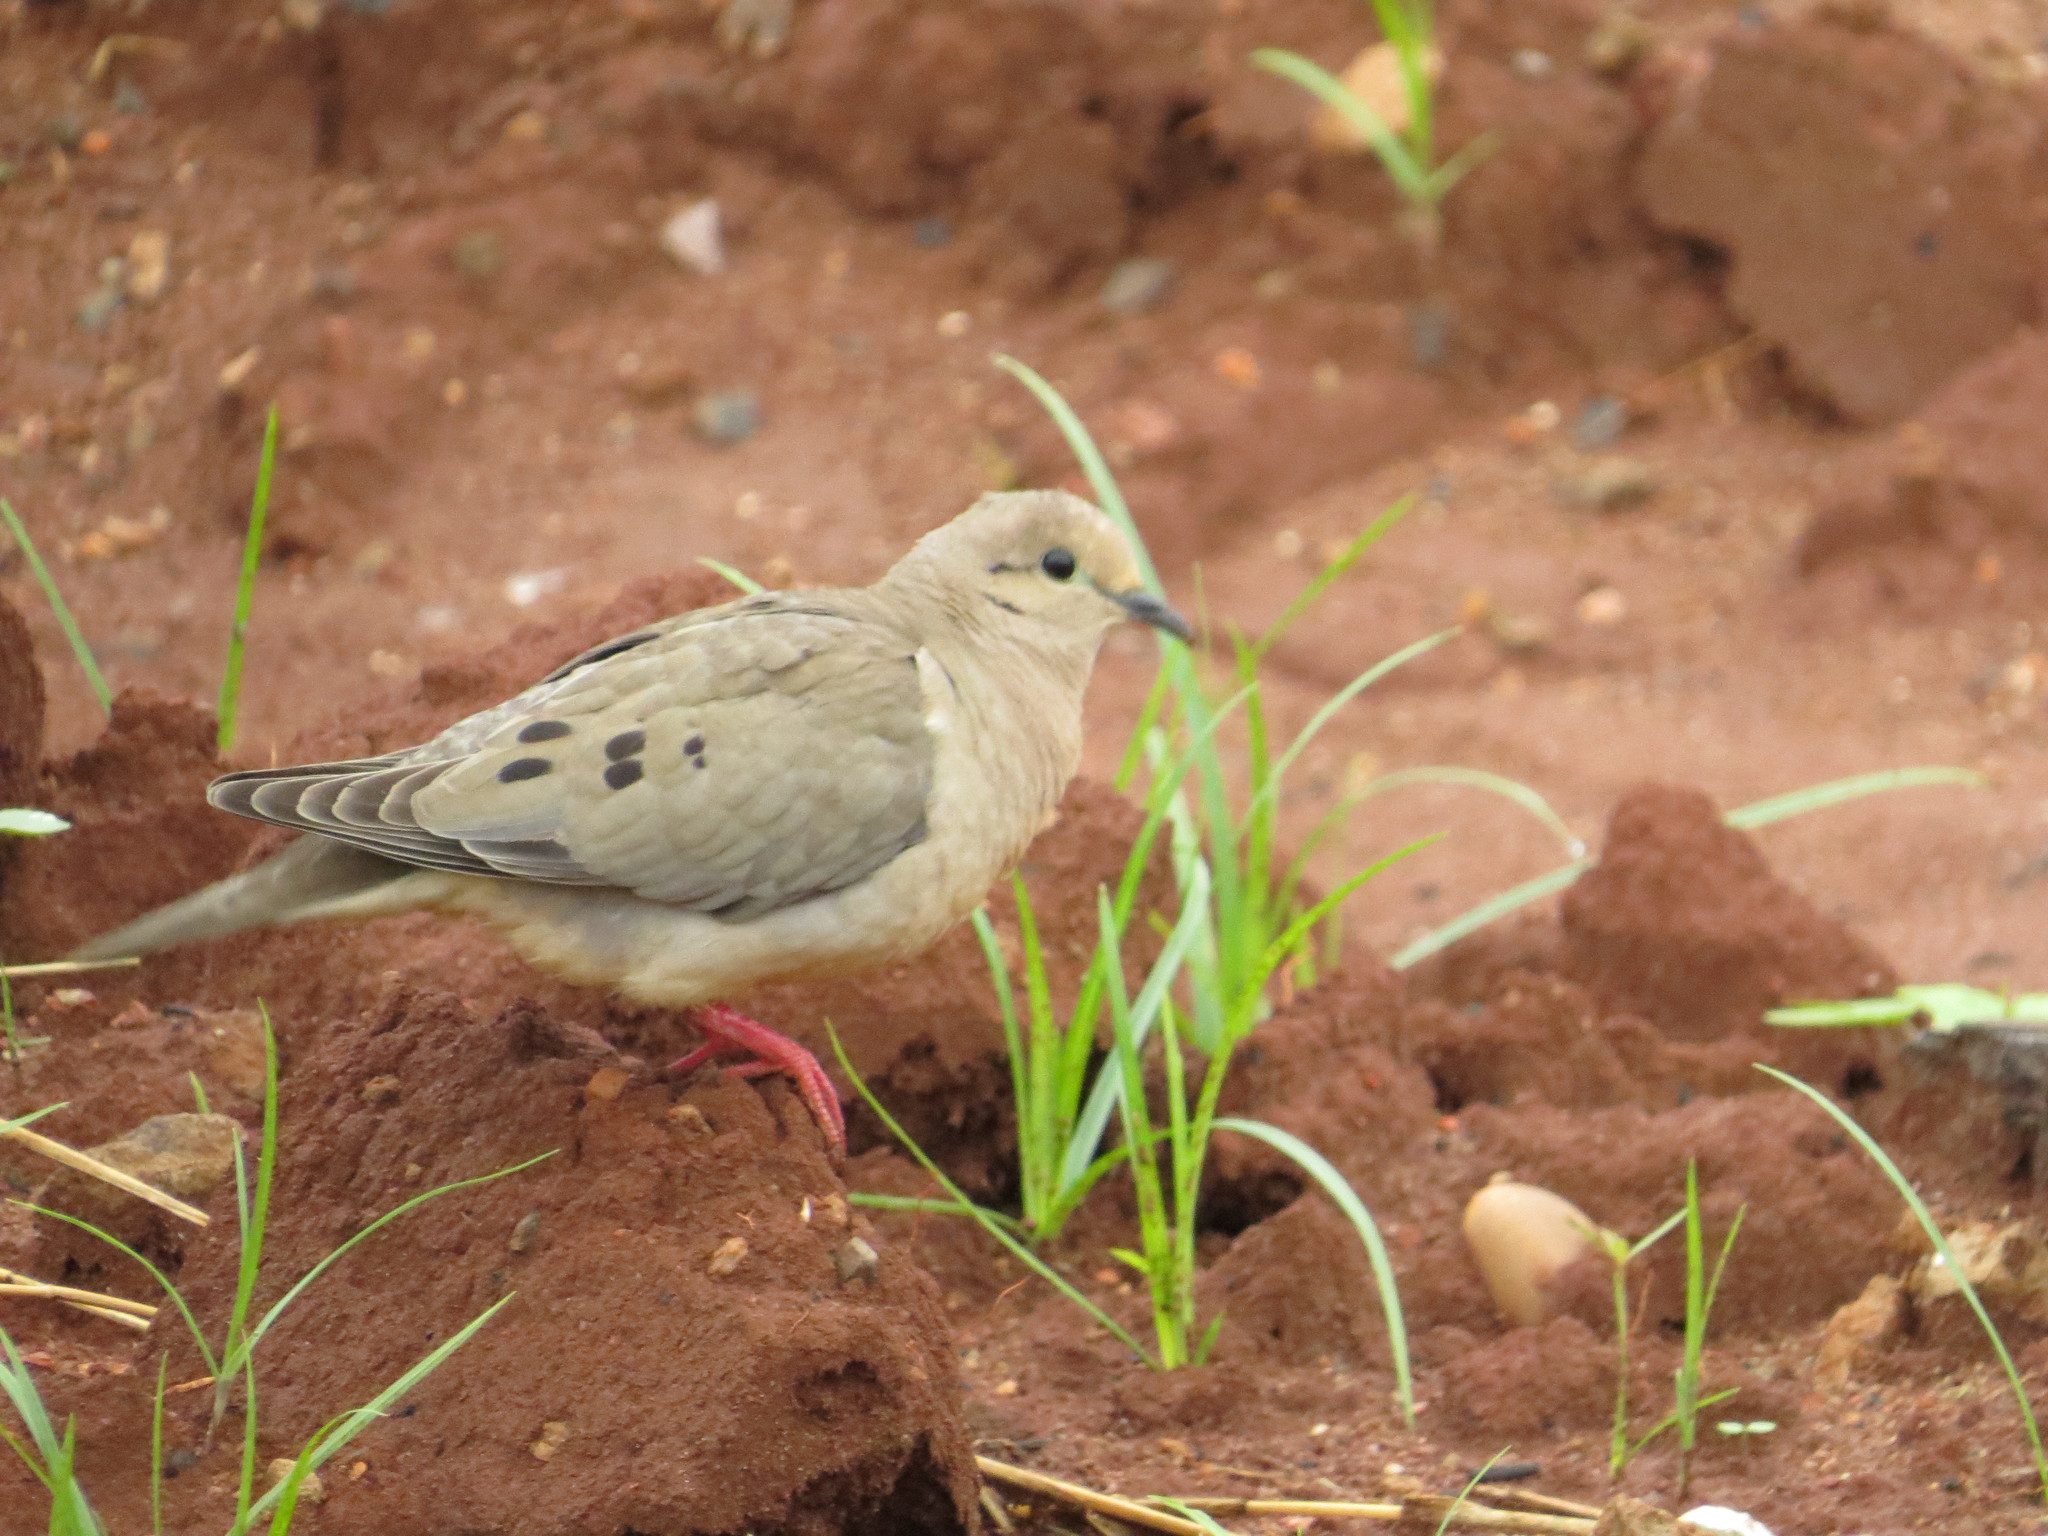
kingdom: Animalia
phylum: Chordata
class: Aves
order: Columbiformes
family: Columbidae
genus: Zenaida
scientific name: Zenaida auriculata
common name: Eared dove
